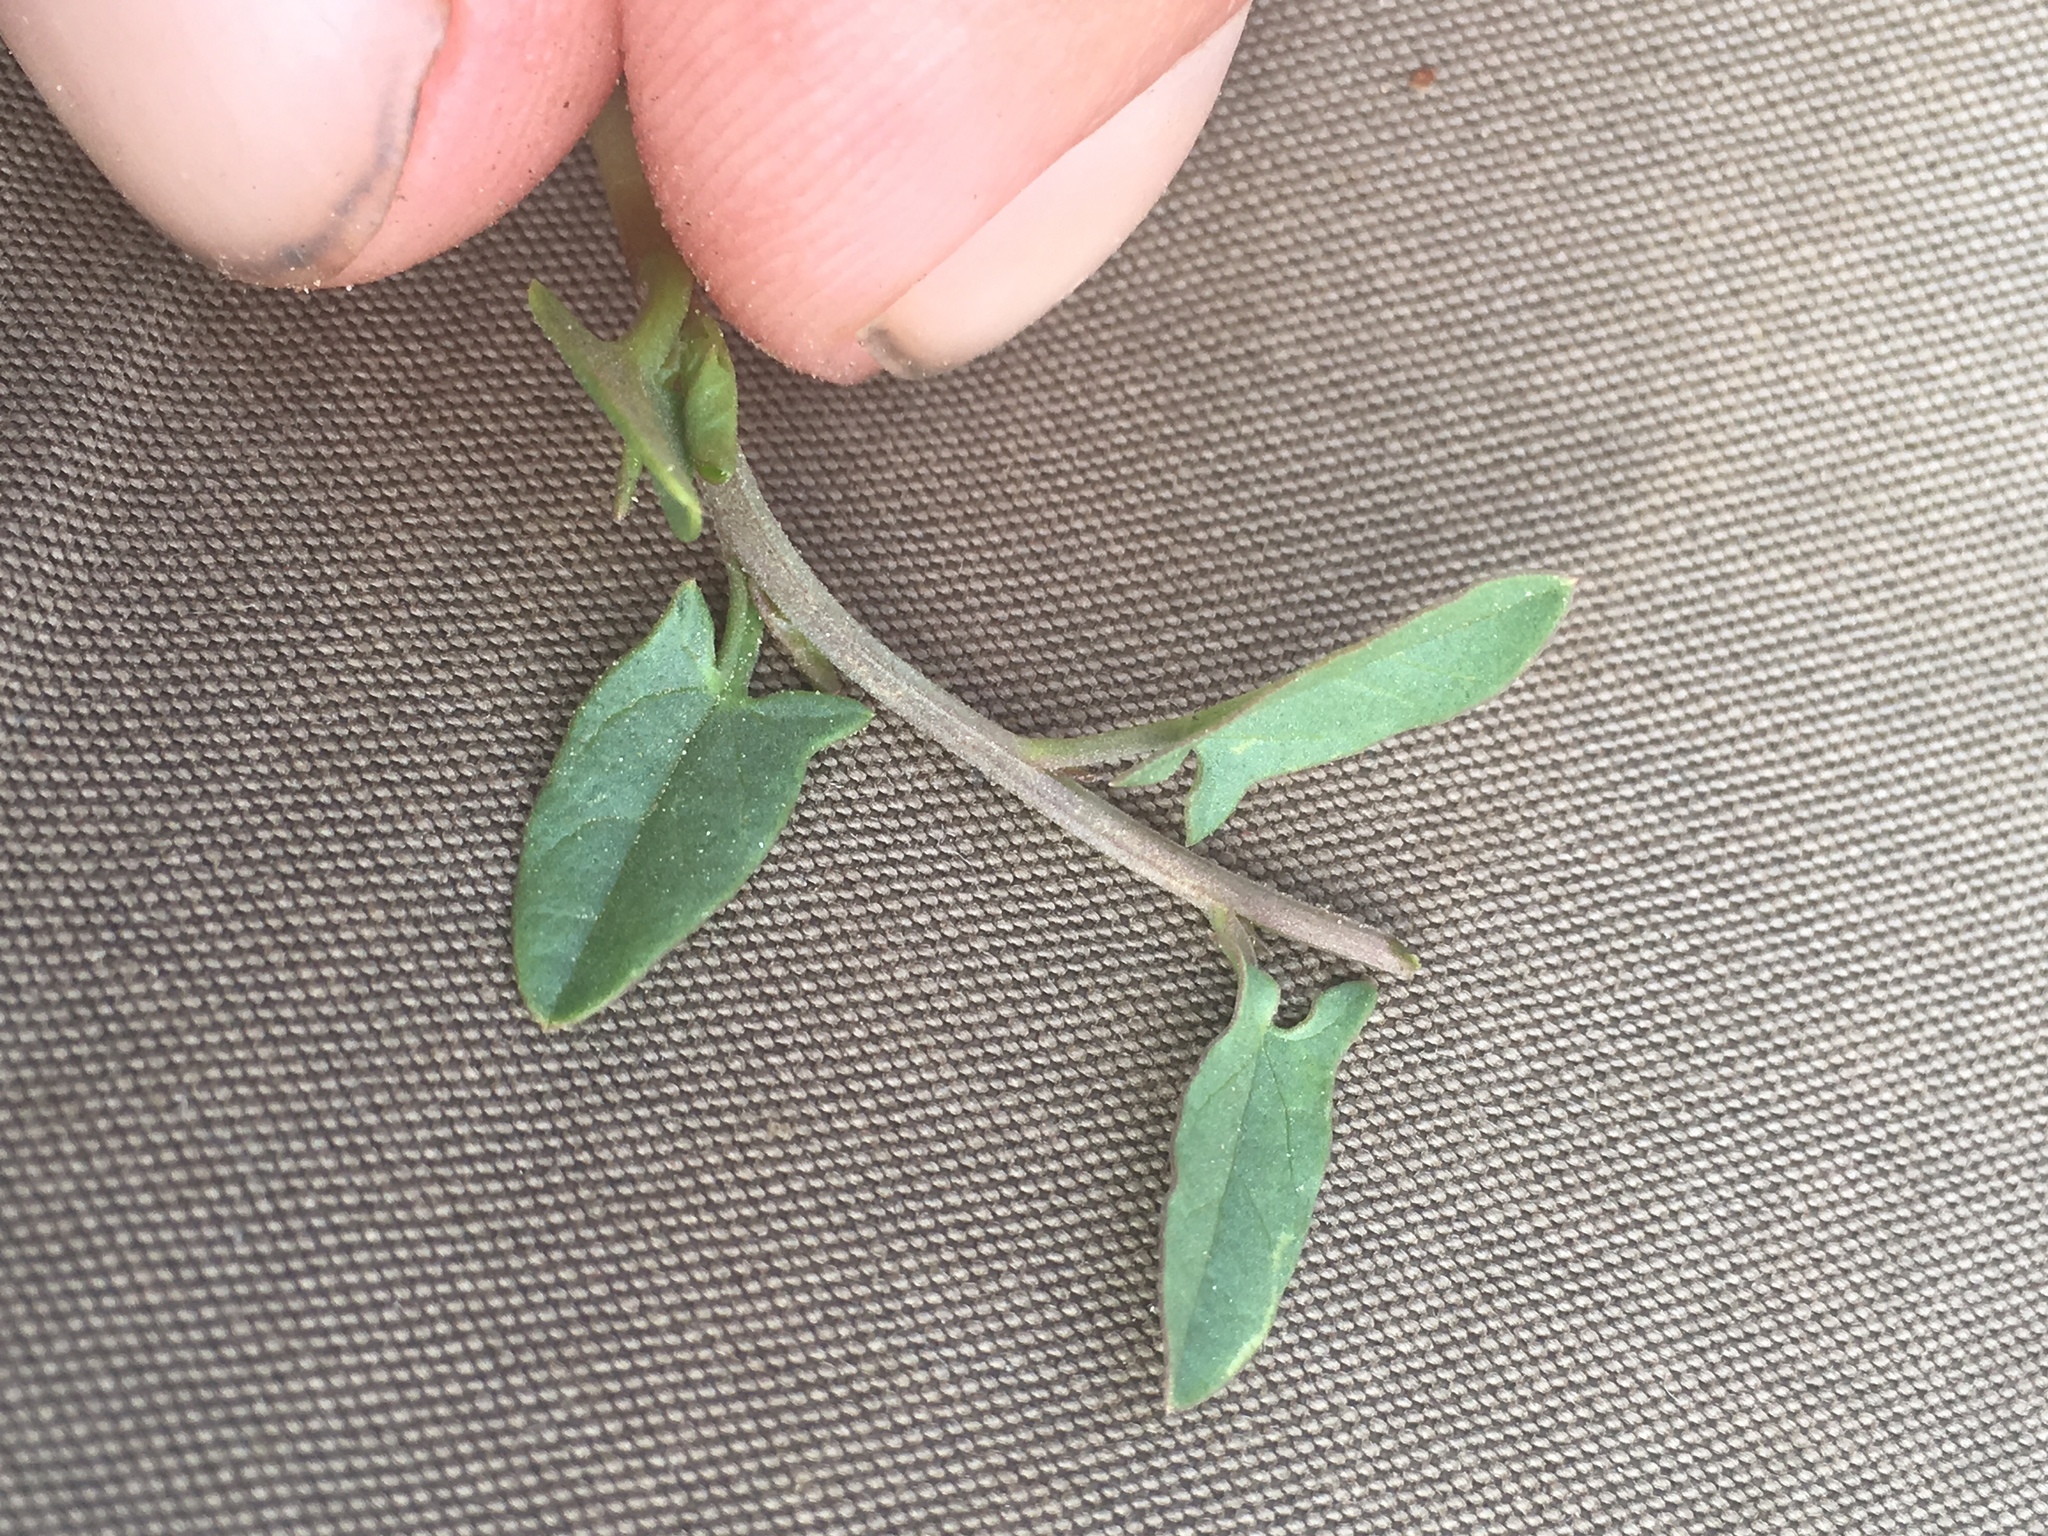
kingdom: Plantae
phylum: Tracheophyta
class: Magnoliopsida
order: Solanales
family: Convolvulaceae
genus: Convolvulus
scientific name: Convolvulus arvensis
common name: Field bindweed
